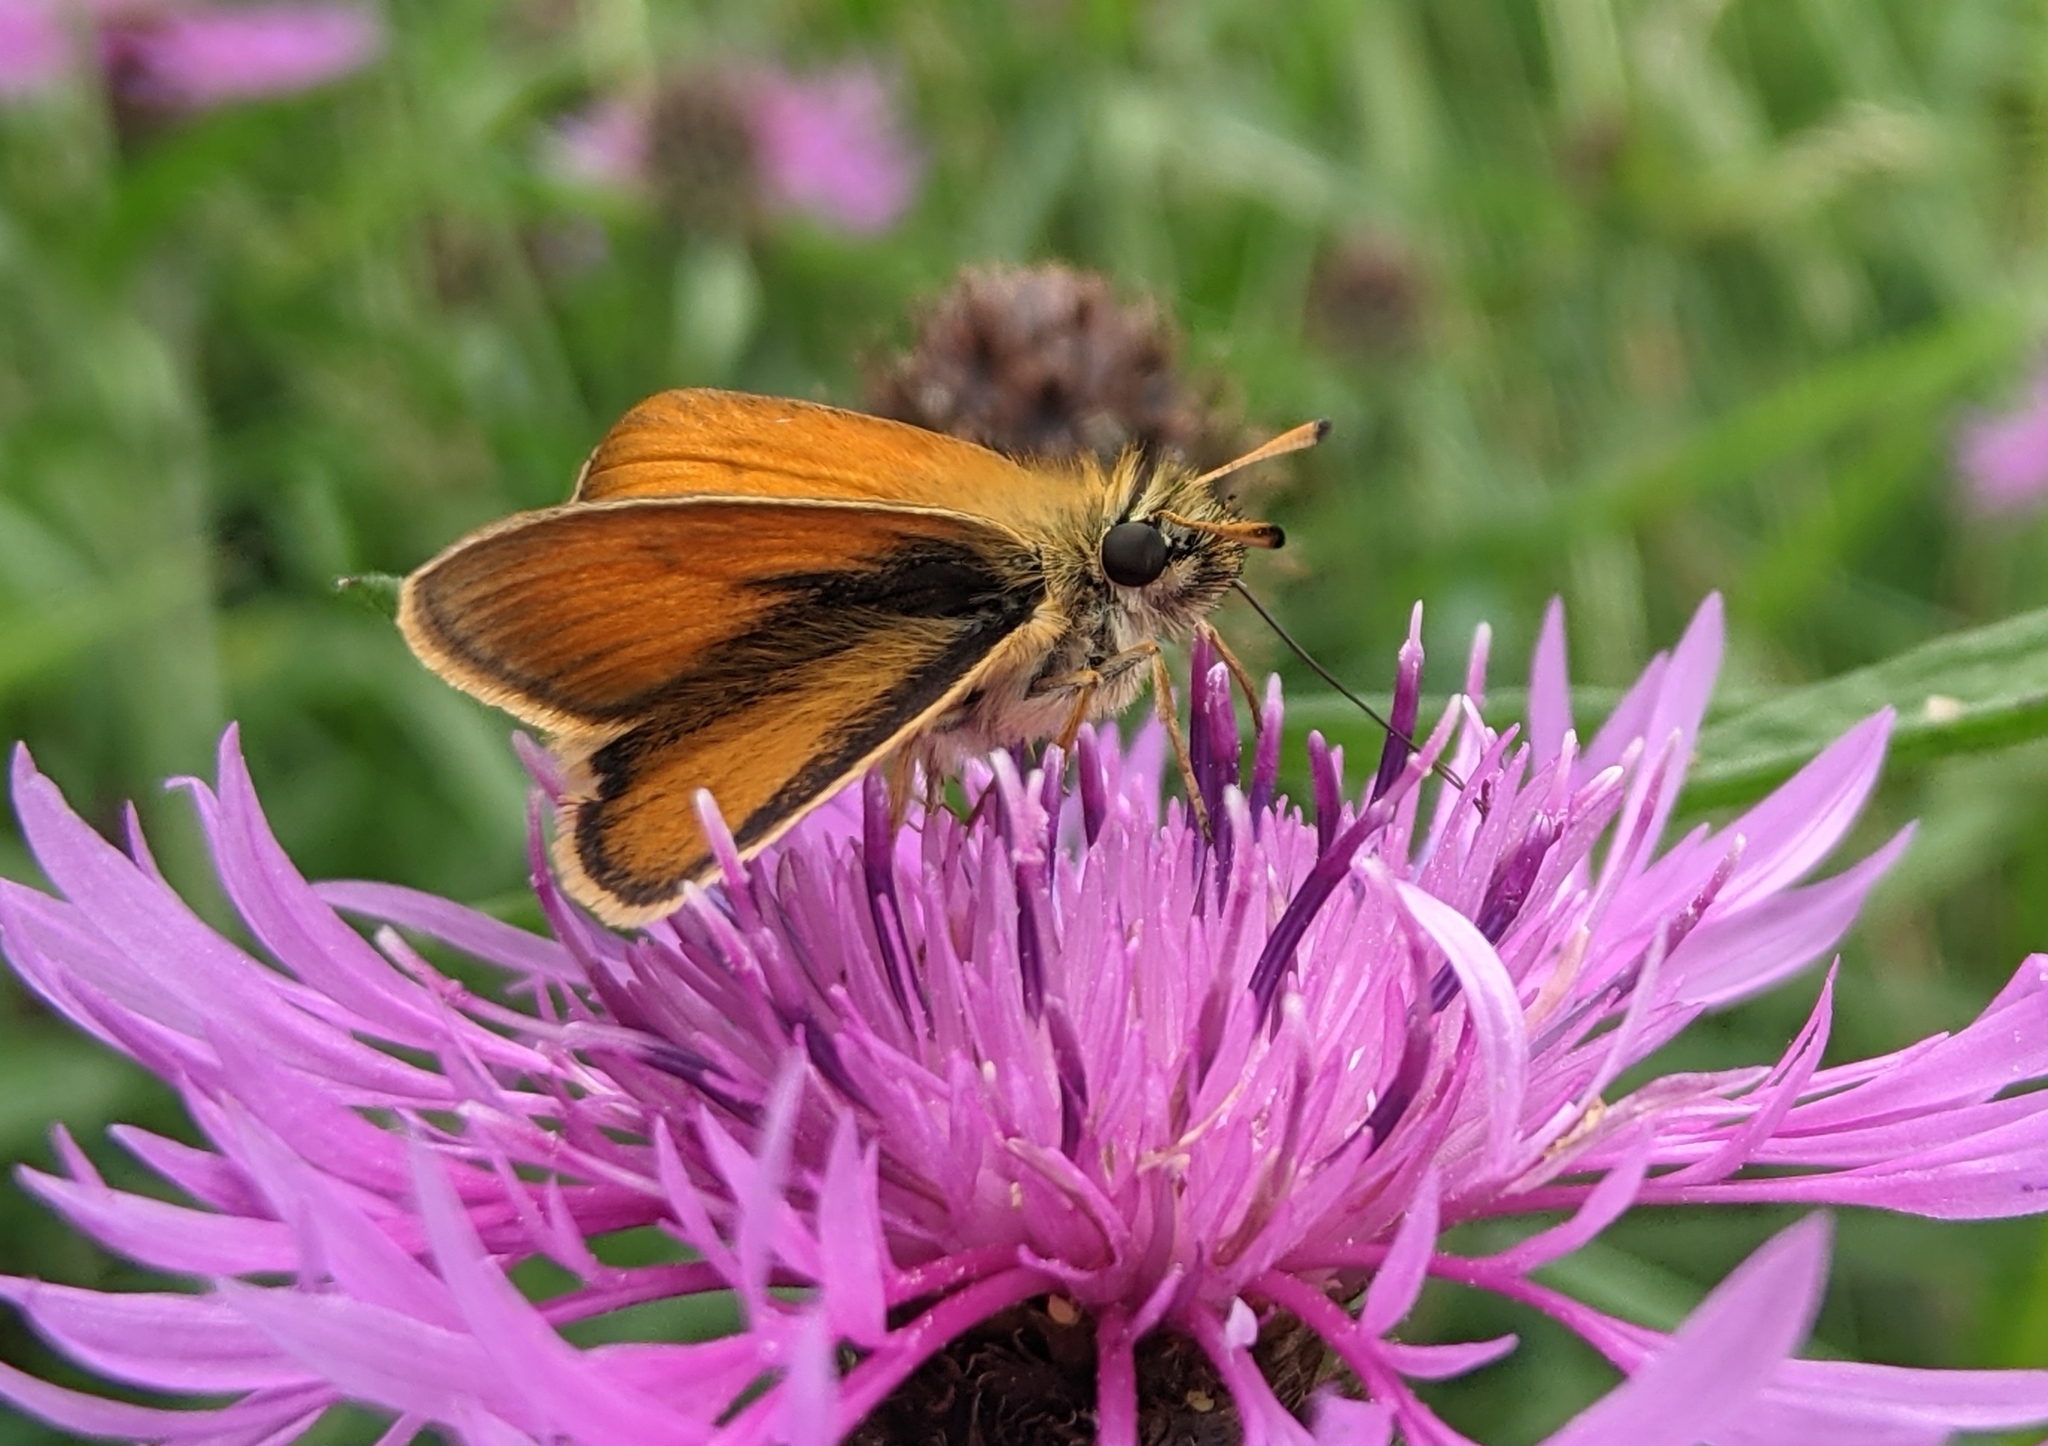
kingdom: Animalia
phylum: Arthropoda
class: Insecta
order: Lepidoptera
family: Hesperiidae
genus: Thymelicus
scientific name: Thymelicus lineola
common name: Essex skipper
